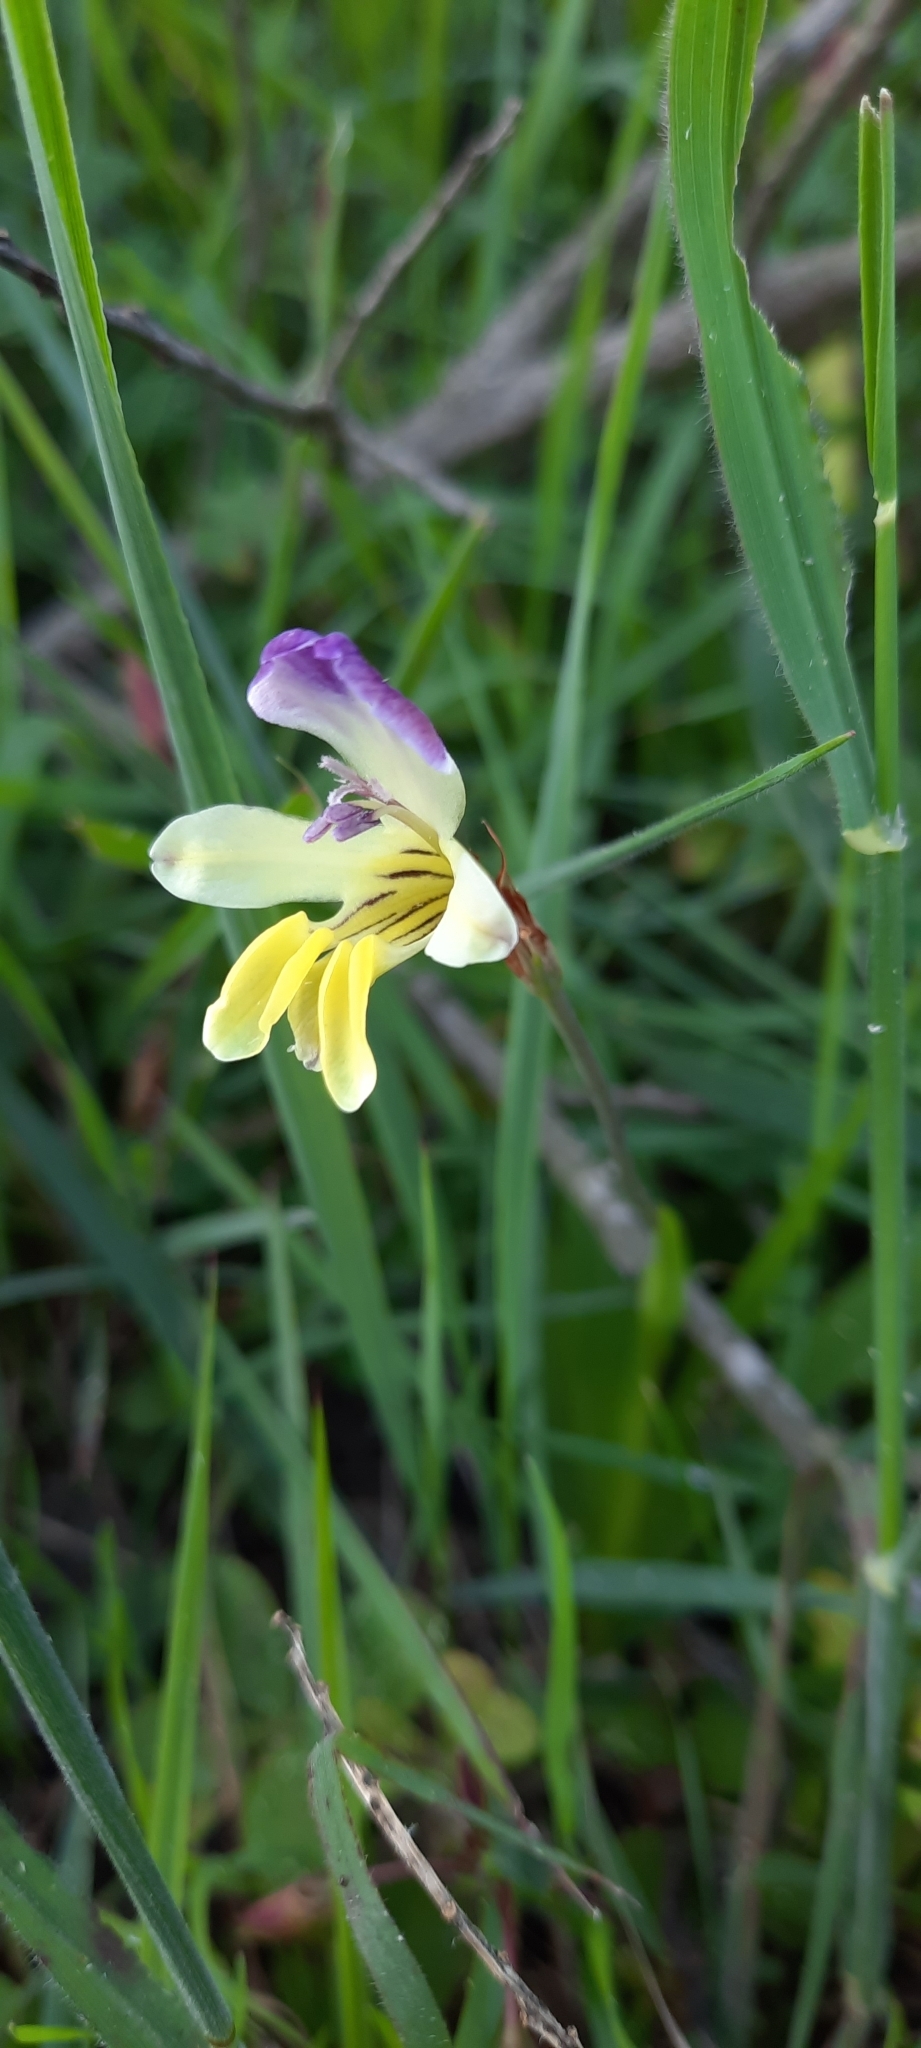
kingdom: Plantae
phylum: Tracheophyta
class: Liliopsida
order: Asparagales
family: Iridaceae
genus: Sparaxis
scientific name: Sparaxis villosa
